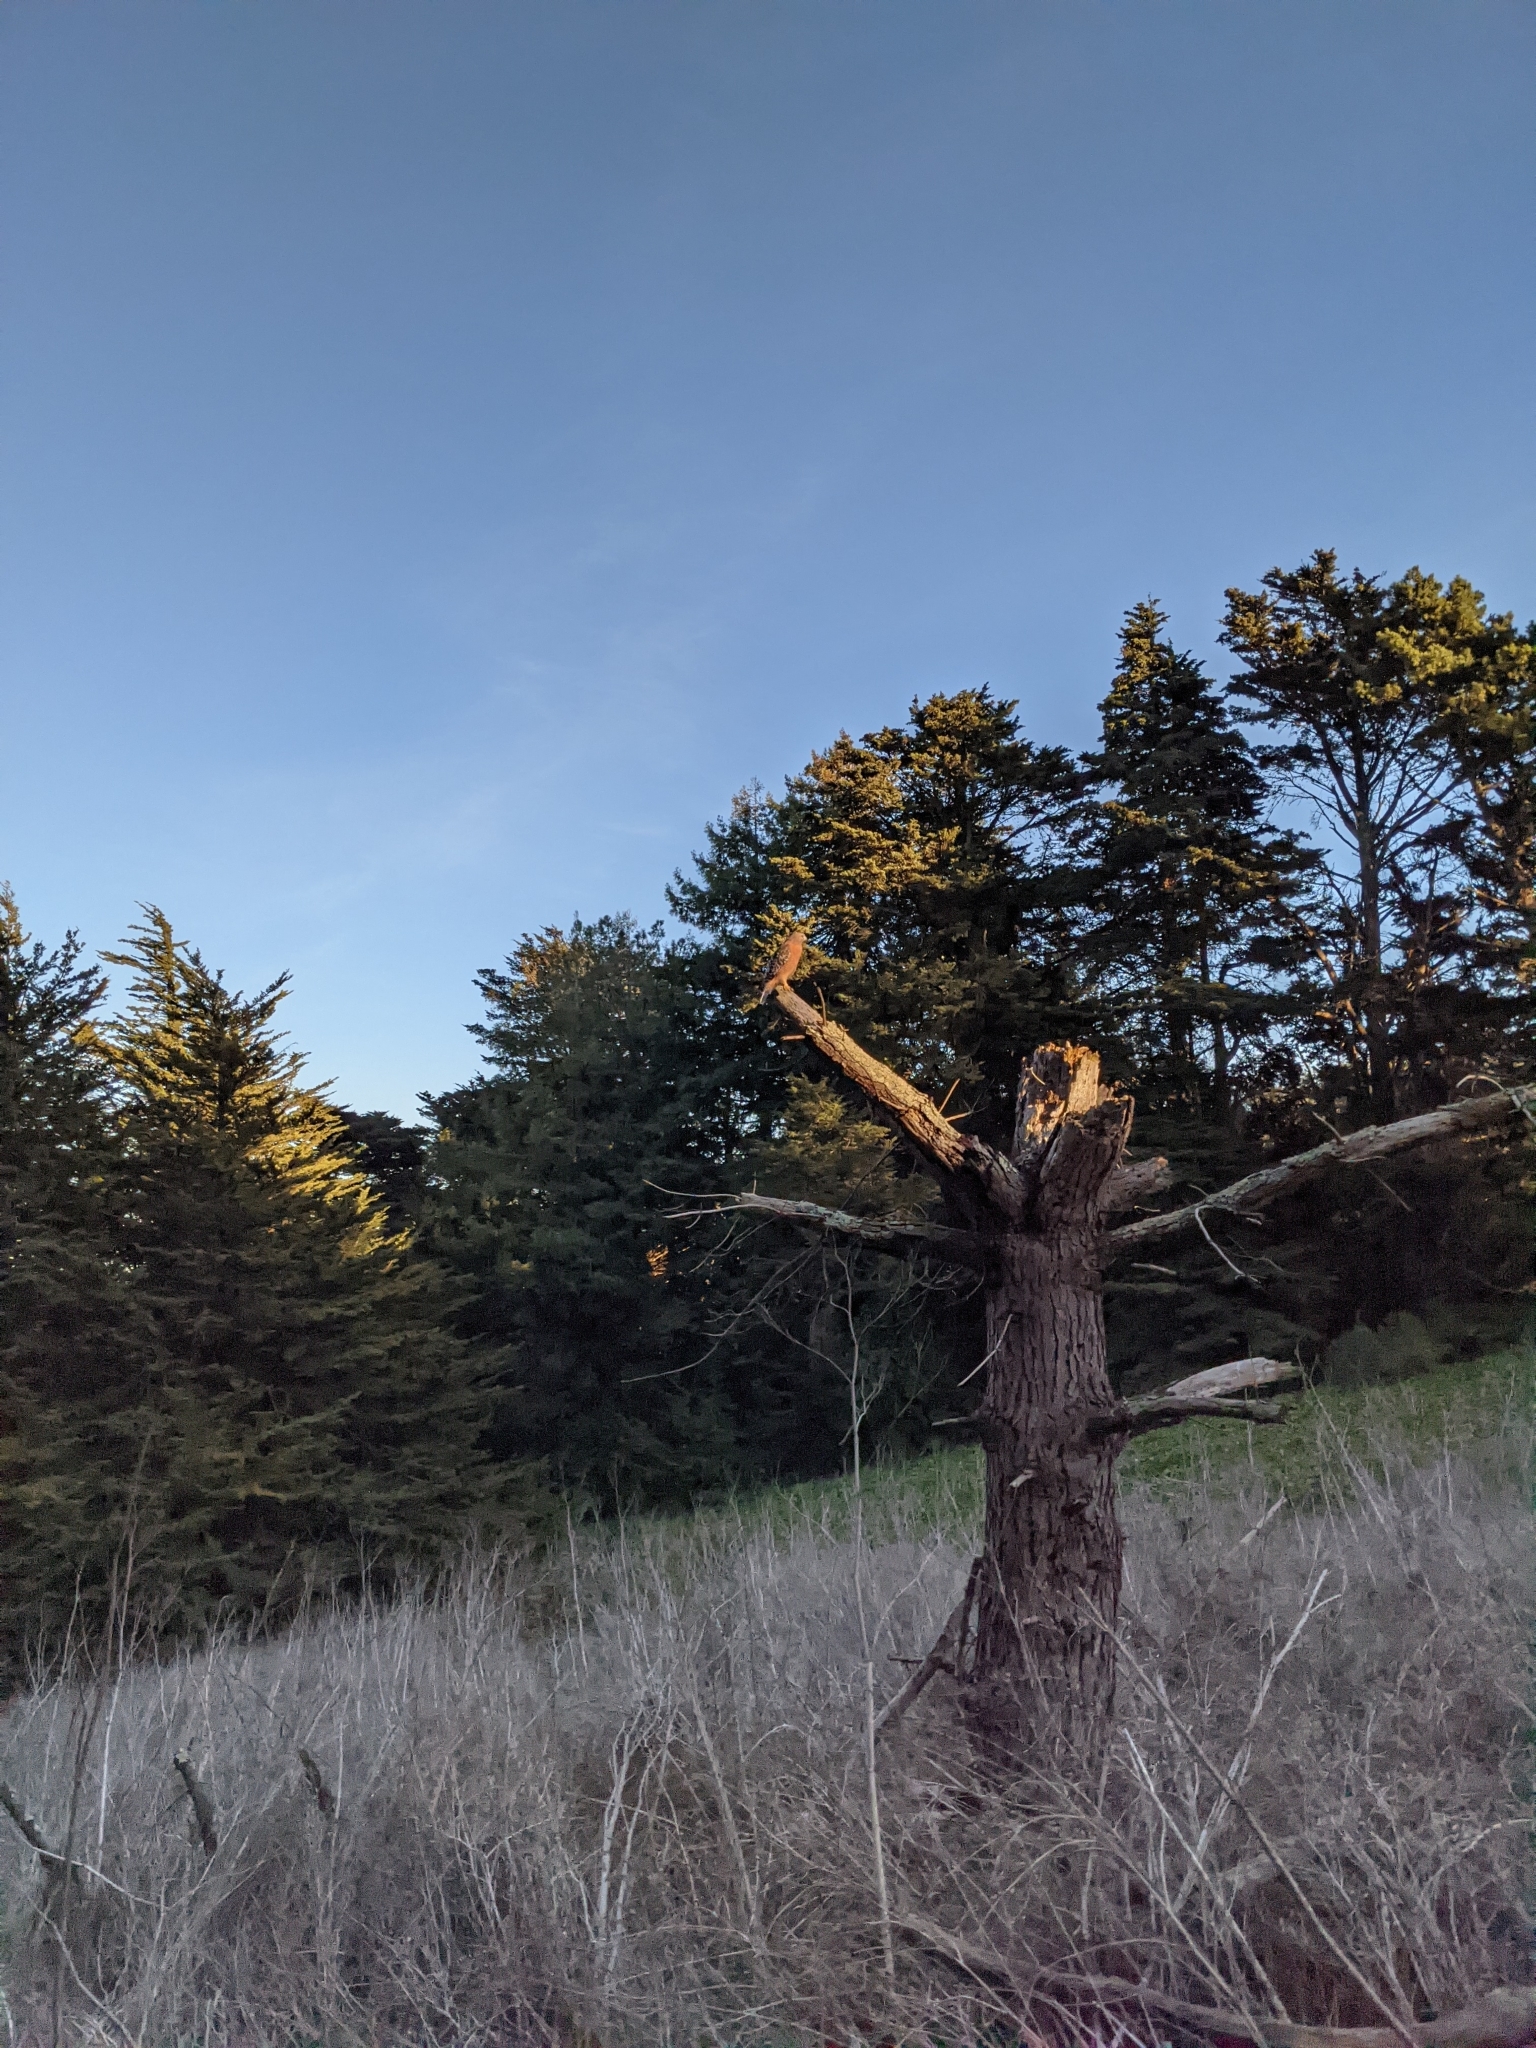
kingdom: Animalia
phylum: Chordata
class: Aves
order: Accipitriformes
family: Accipitridae
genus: Buteo
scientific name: Buteo lineatus
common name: Red-shouldered hawk
